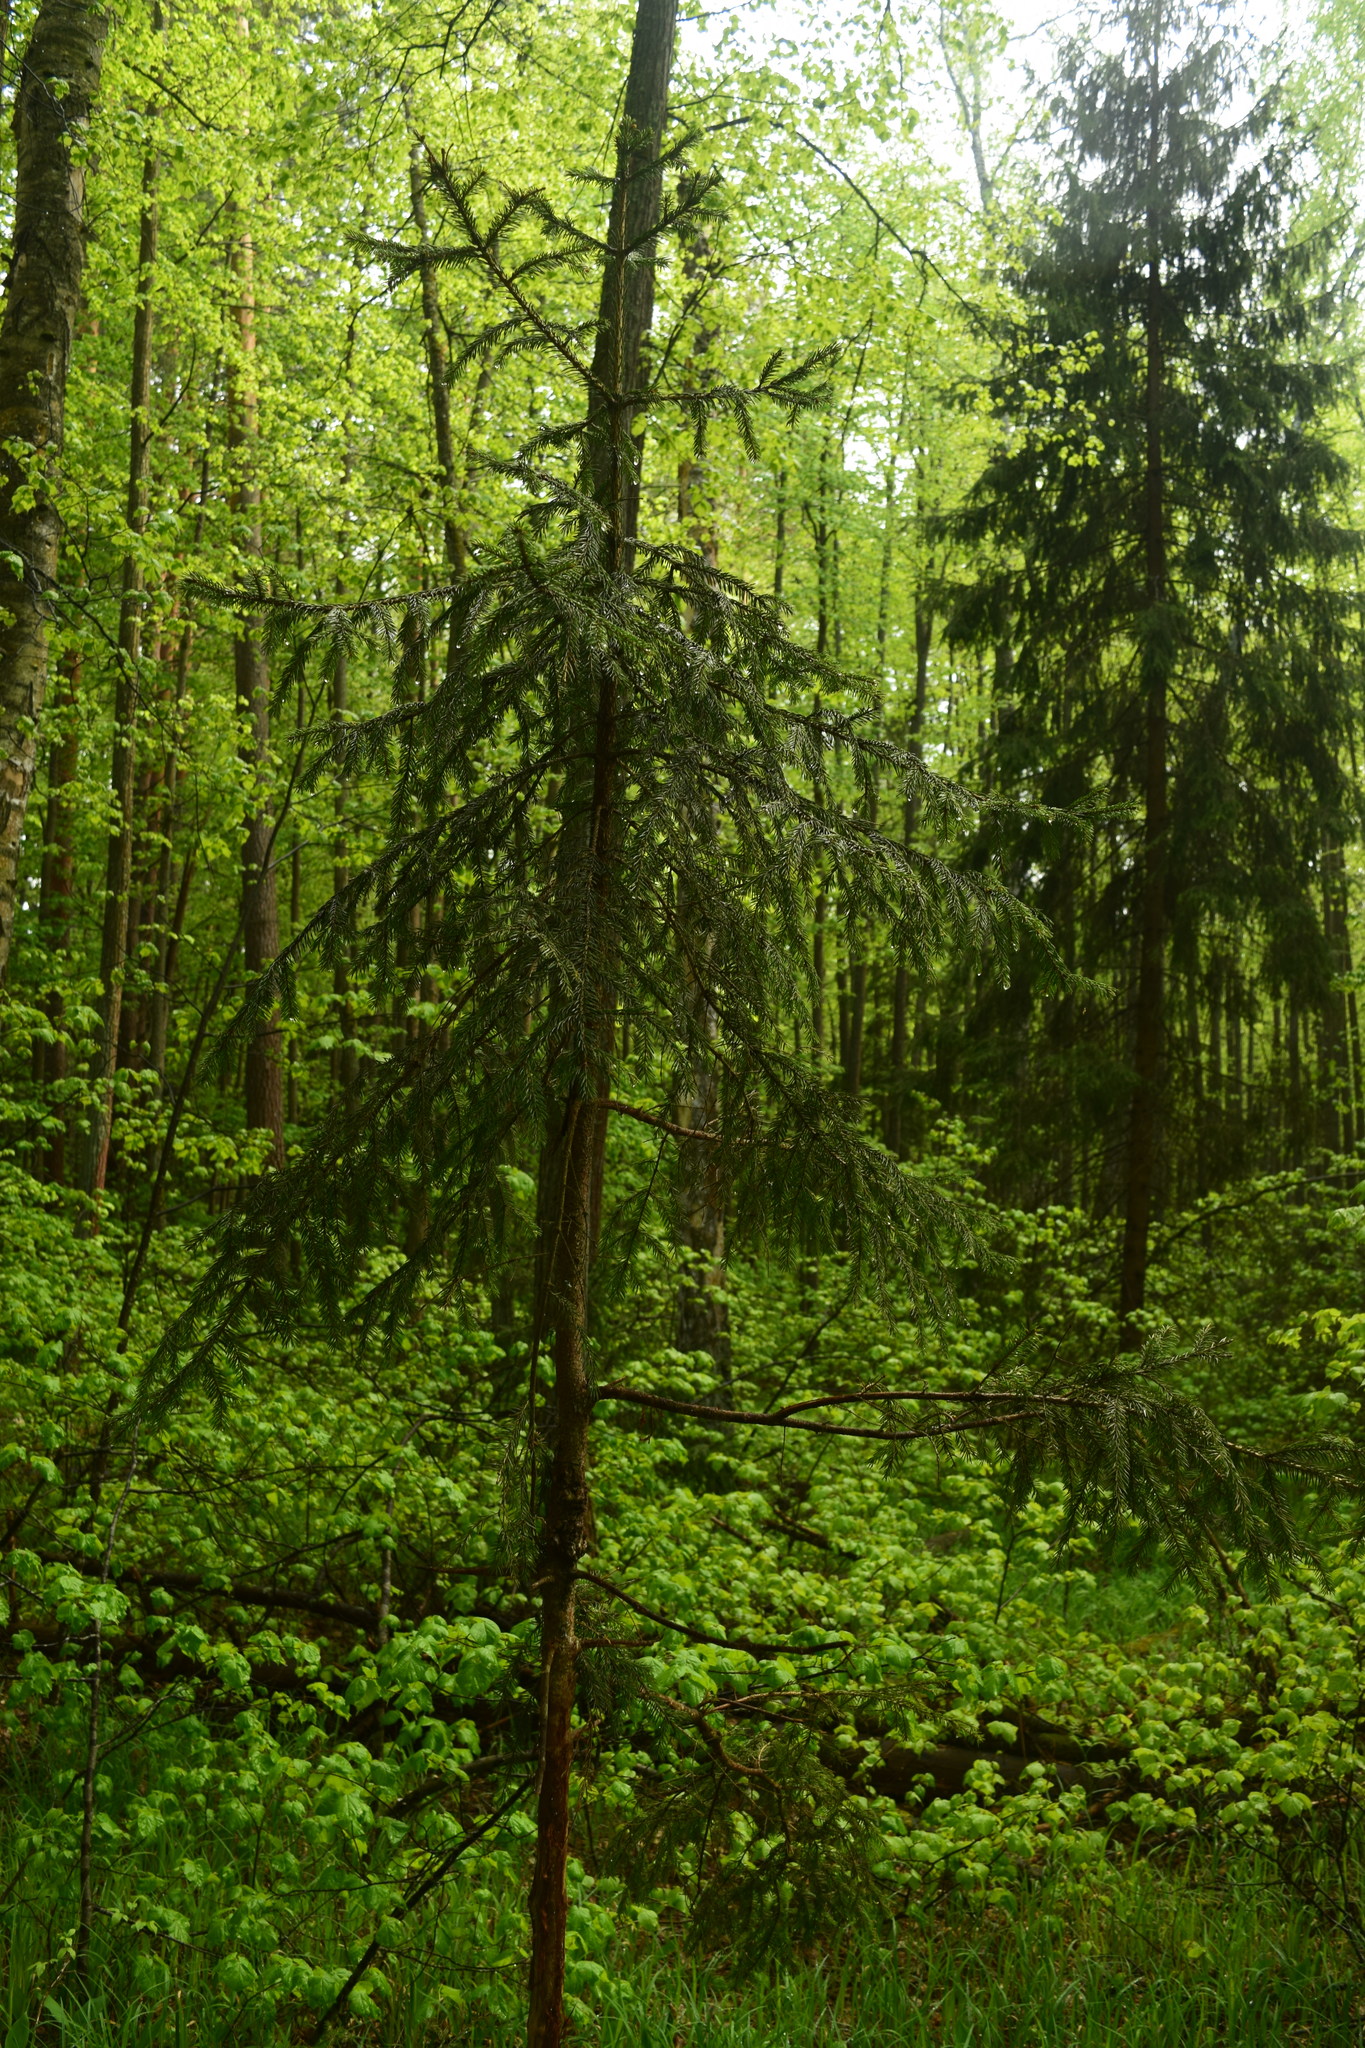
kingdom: Plantae
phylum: Tracheophyta
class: Pinopsida
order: Pinales
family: Pinaceae
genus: Picea
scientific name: Picea abies
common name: Norway spruce
